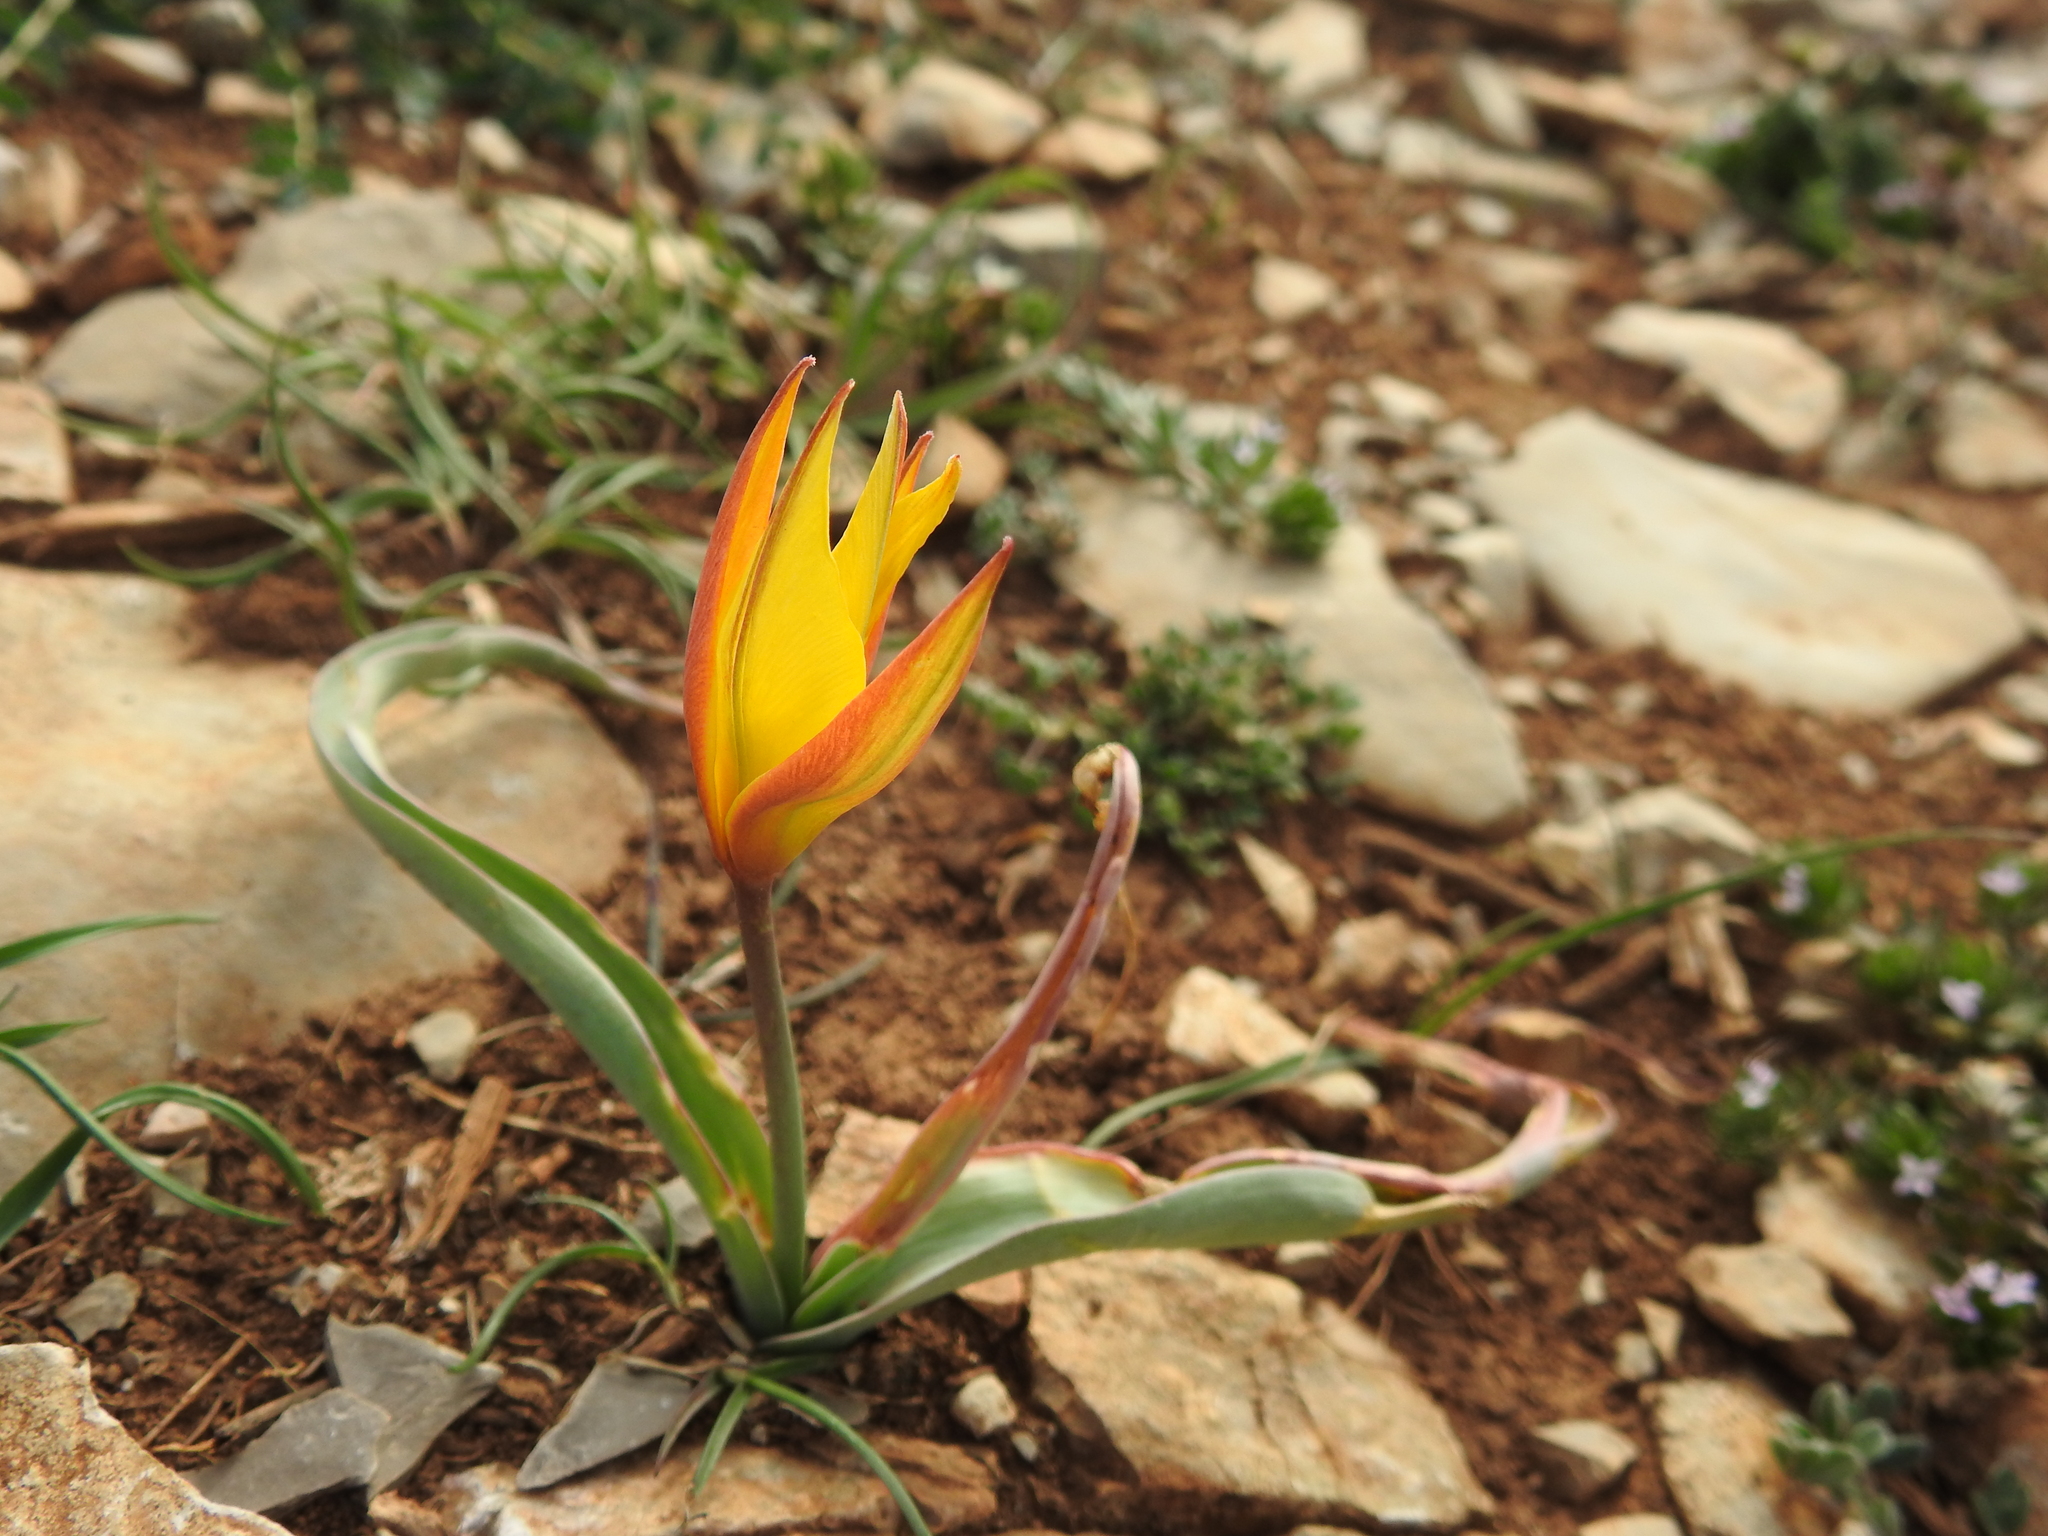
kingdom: Plantae
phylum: Tracheophyta
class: Liliopsida
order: Liliales
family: Liliaceae
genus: Tulipa
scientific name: Tulipa sylvestris
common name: Wild tulip
